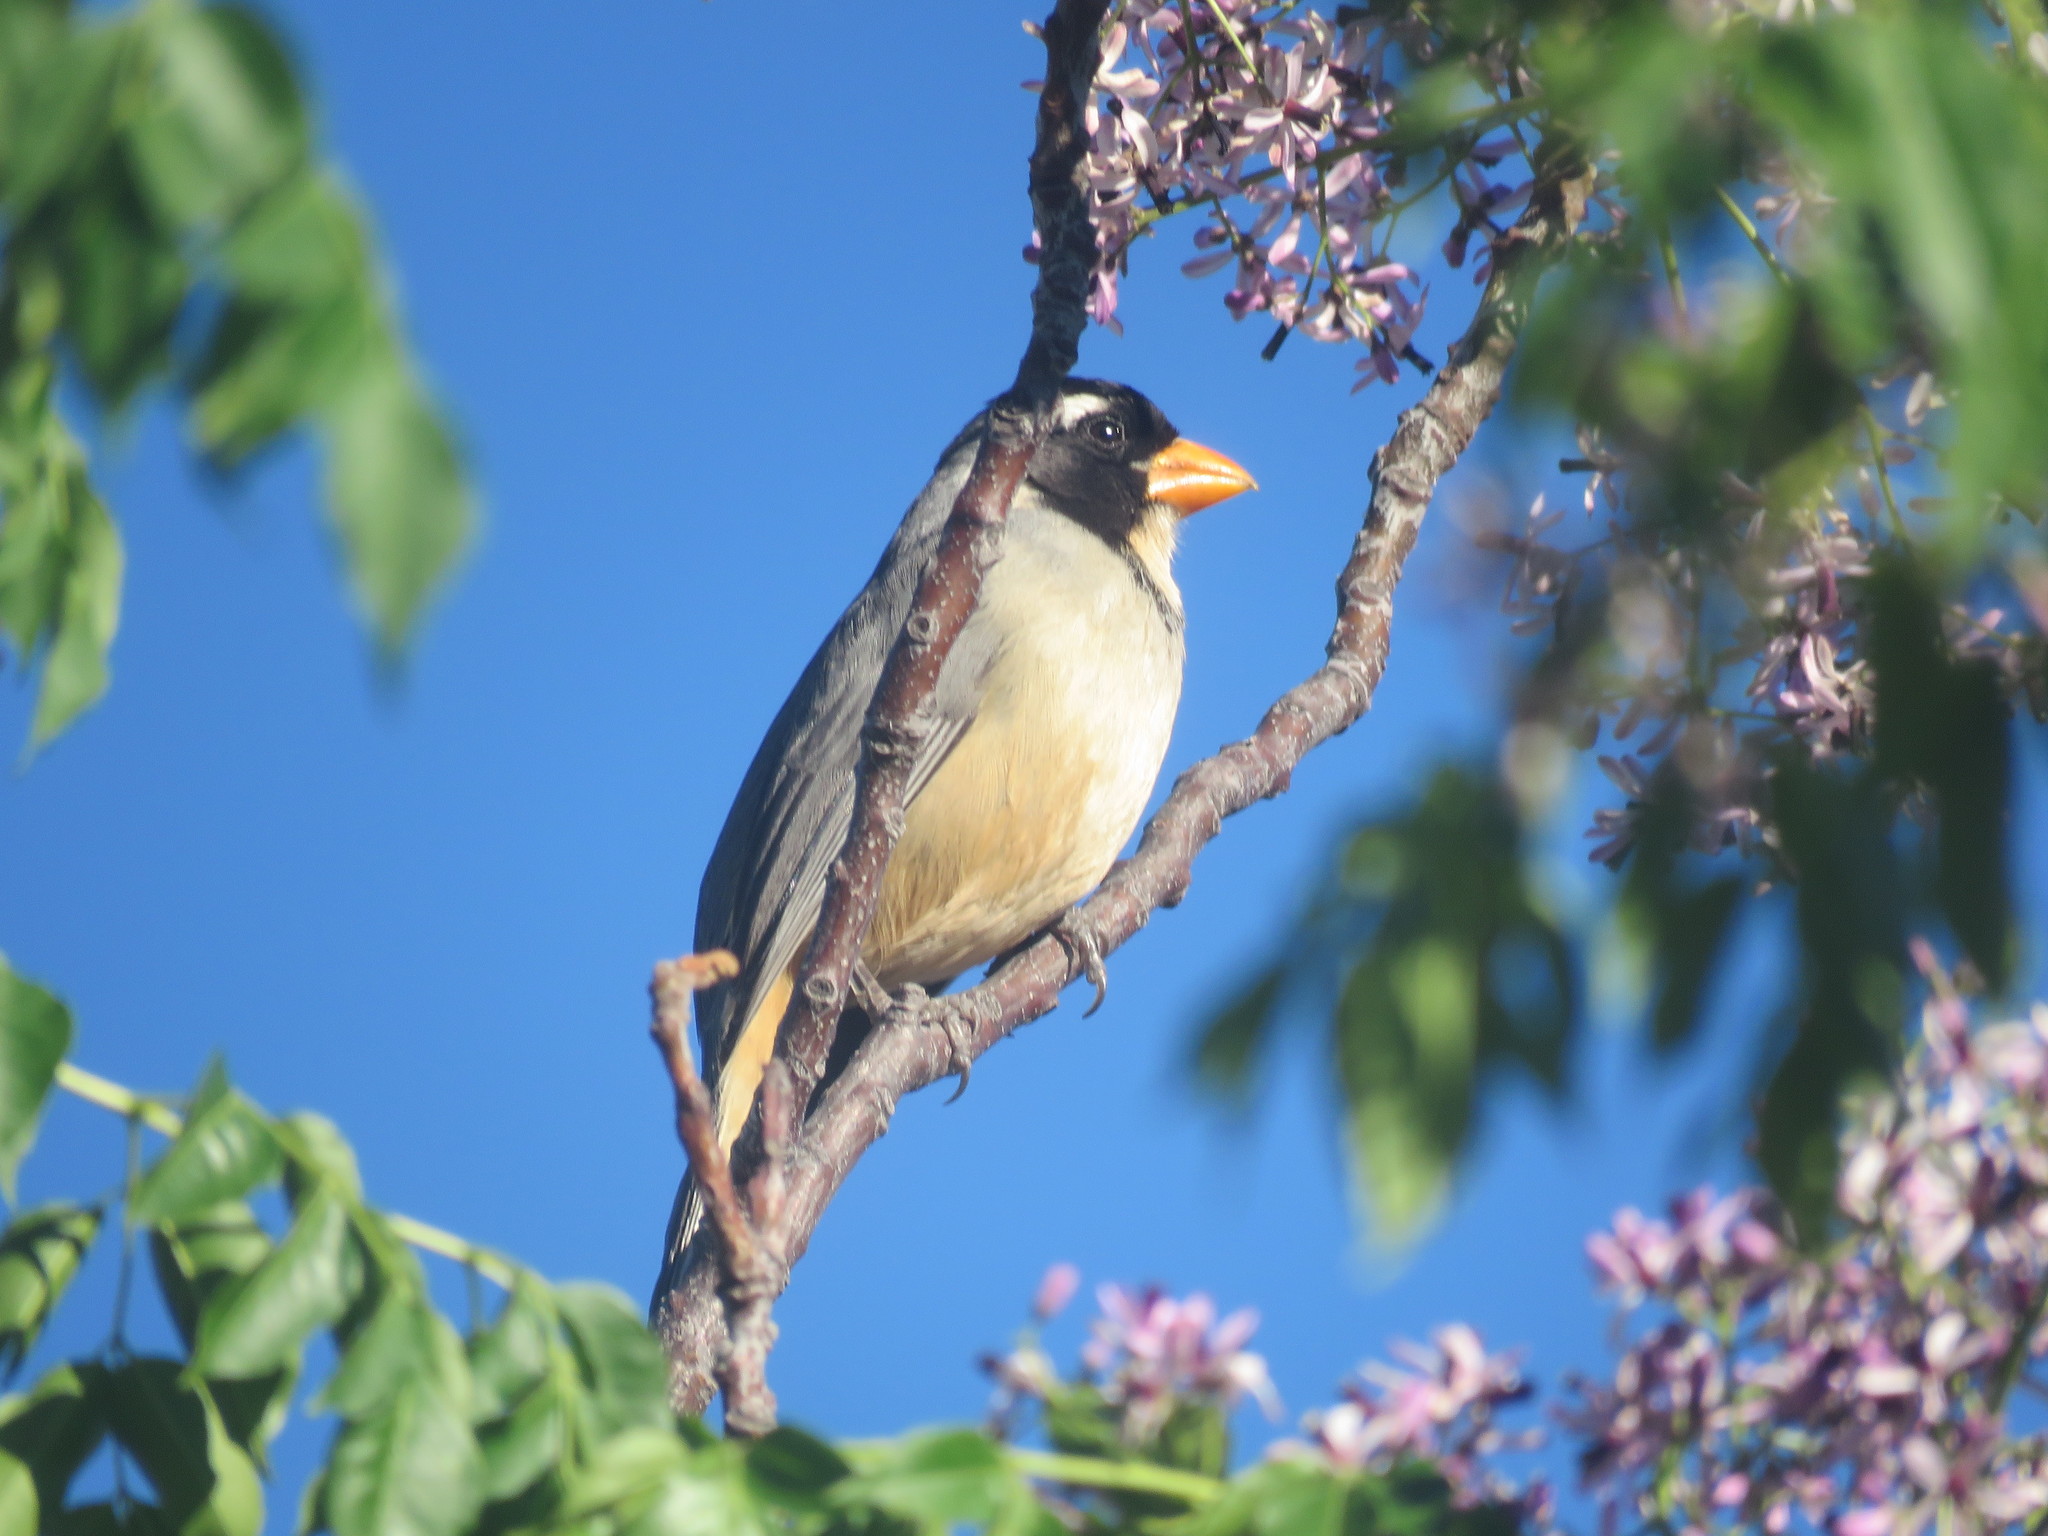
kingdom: Animalia
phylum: Chordata
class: Aves
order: Passeriformes
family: Thraupidae
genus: Saltator
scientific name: Saltator aurantiirostris
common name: Golden-billed saltator
